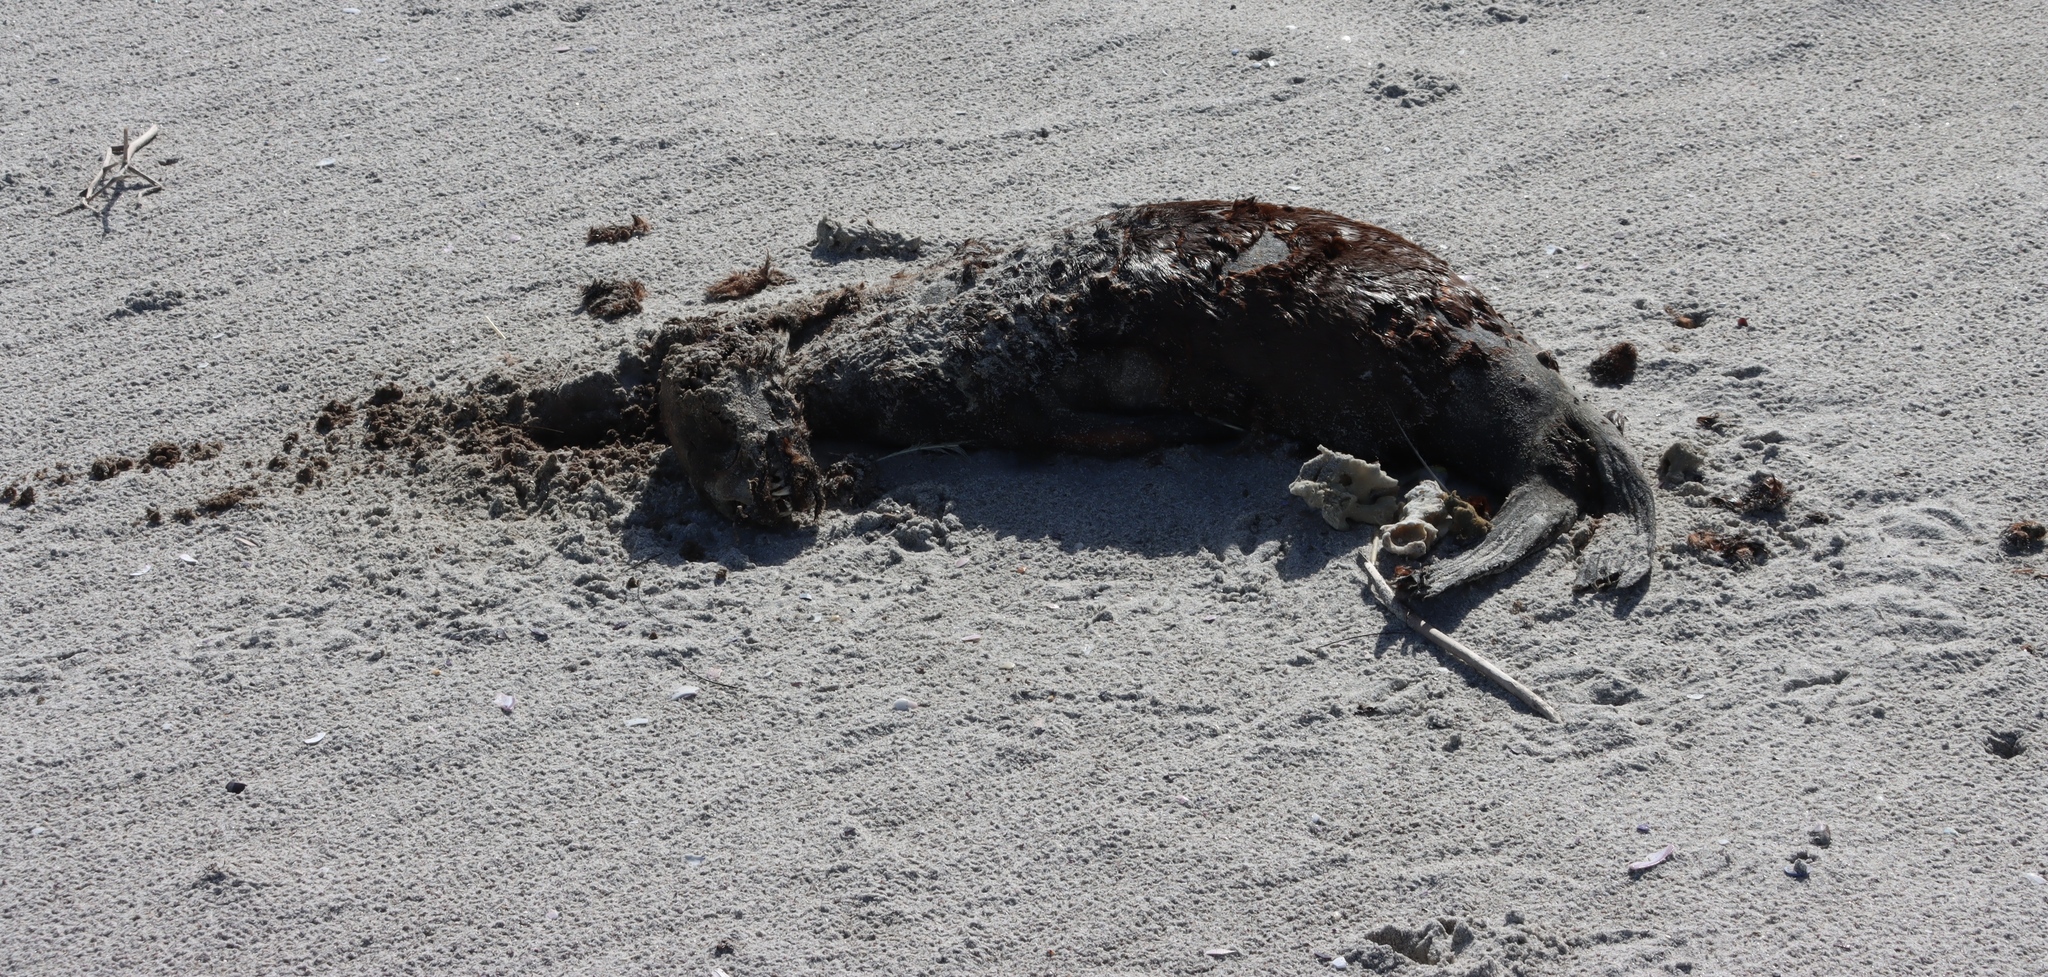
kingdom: Animalia
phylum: Chordata
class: Mammalia
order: Carnivora
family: Otariidae
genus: Arctocephalus
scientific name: Arctocephalus pusillus
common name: Brown fur seal
